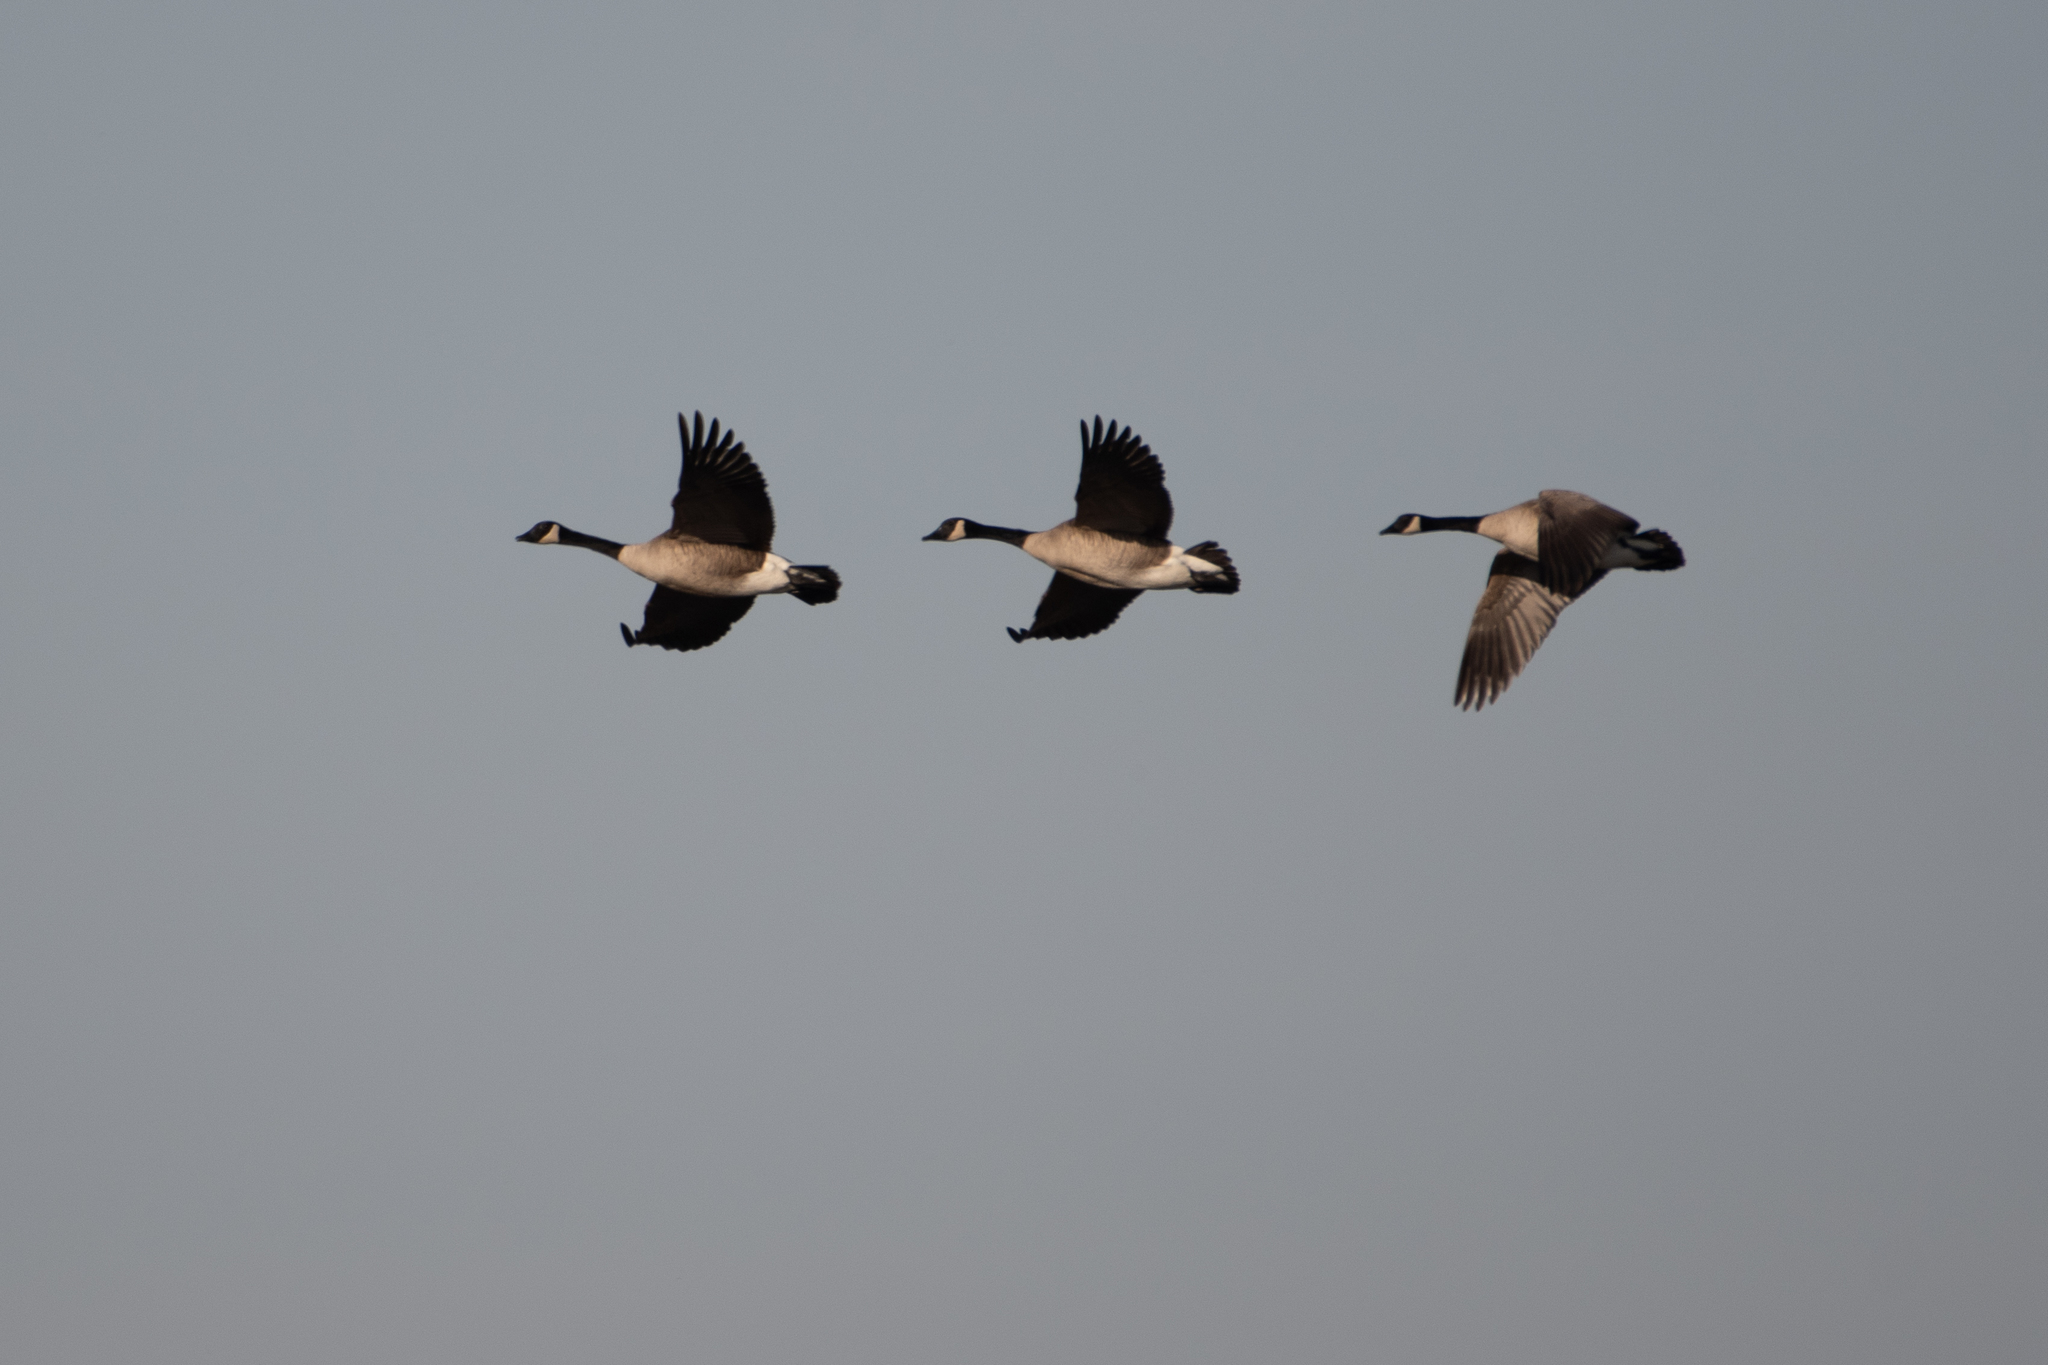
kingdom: Animalia
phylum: Chordata
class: Aves
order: Anseriformes
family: Anatidae
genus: Branta
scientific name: Branta canadensis
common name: Canada goose
